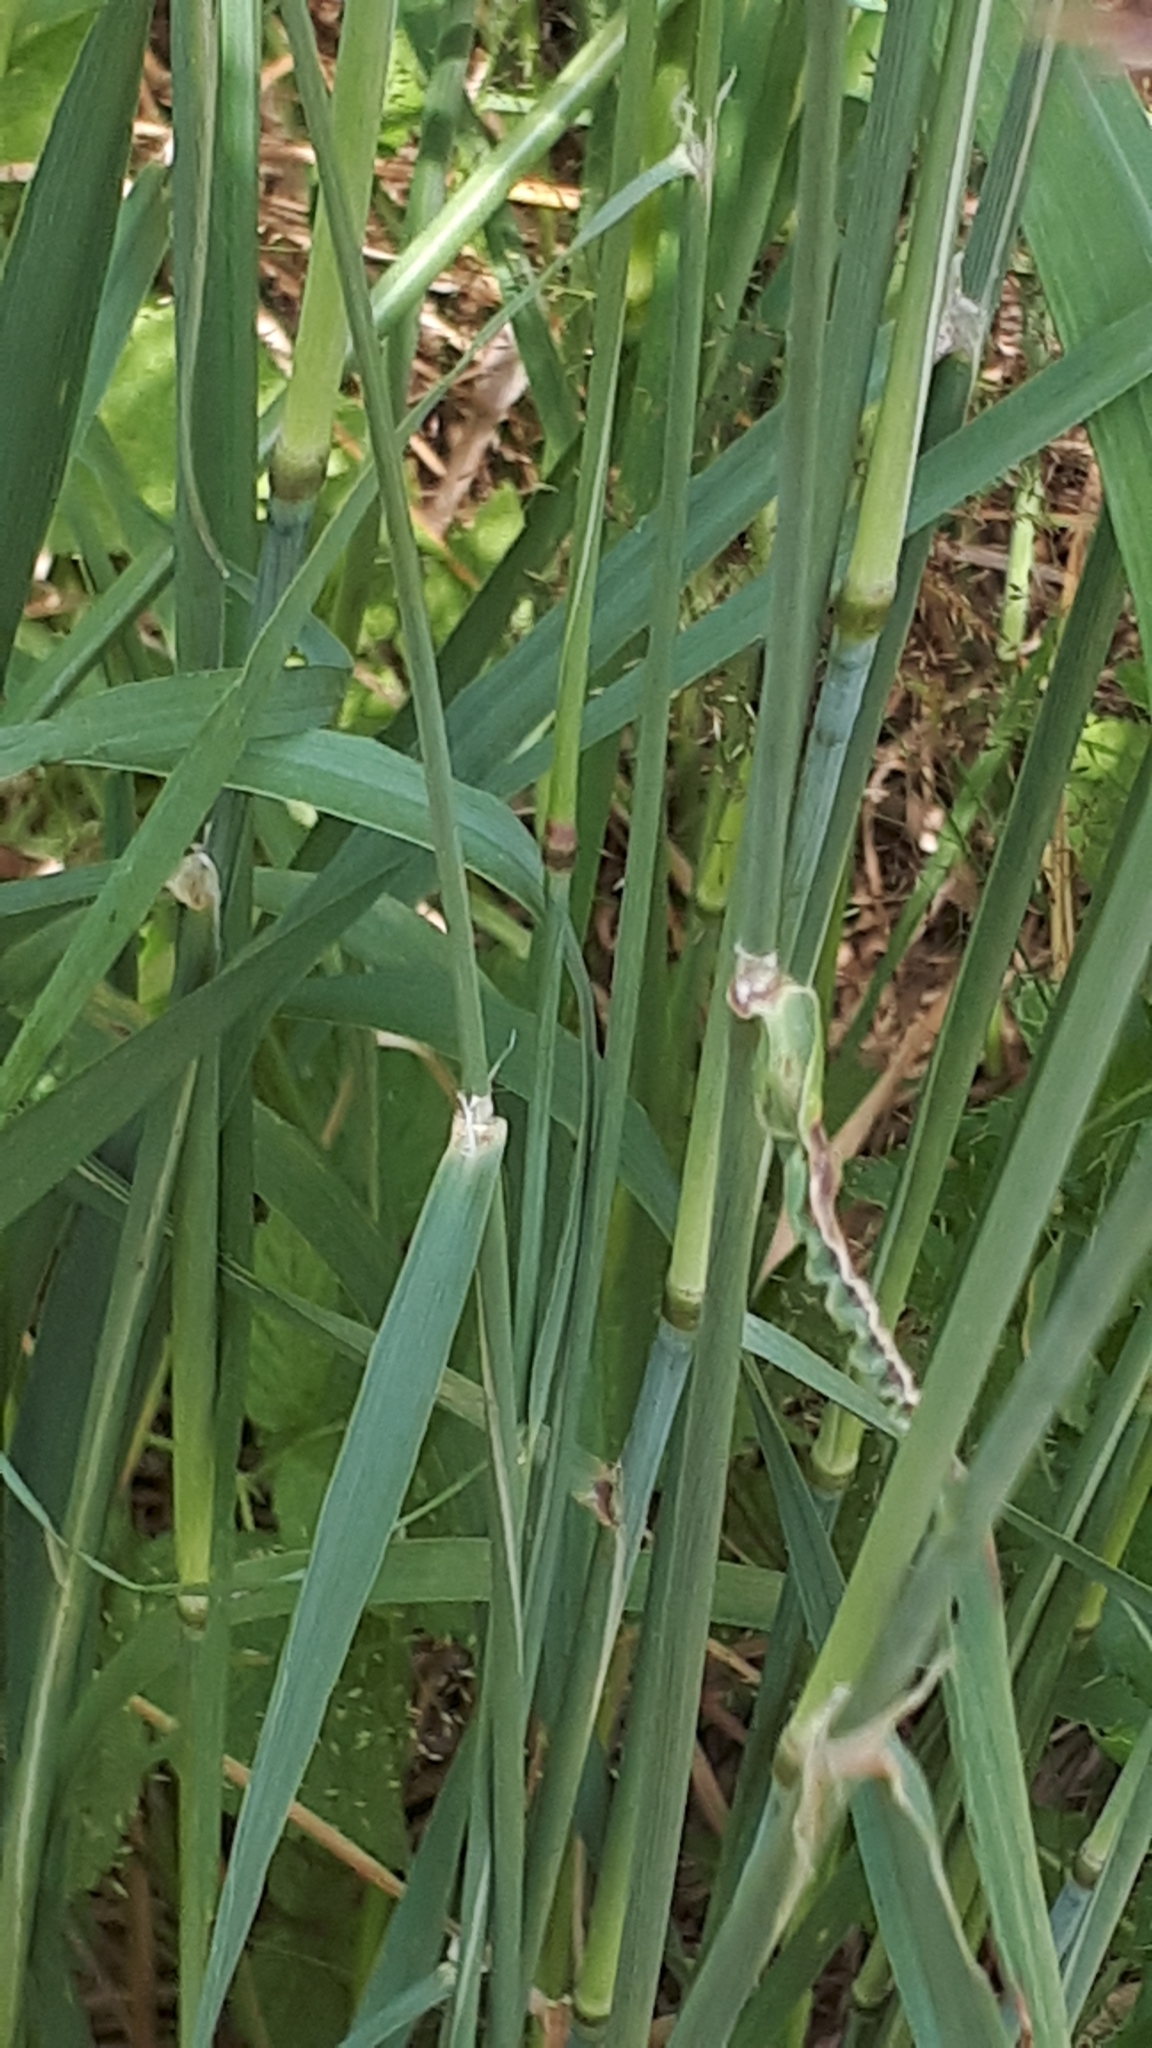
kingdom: Plantae
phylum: Tracheophyta
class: Liliopsida
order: Poales
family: Poaceae
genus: Calamagrostis
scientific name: Calamagrostis epigejos
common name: Wood small-reed
